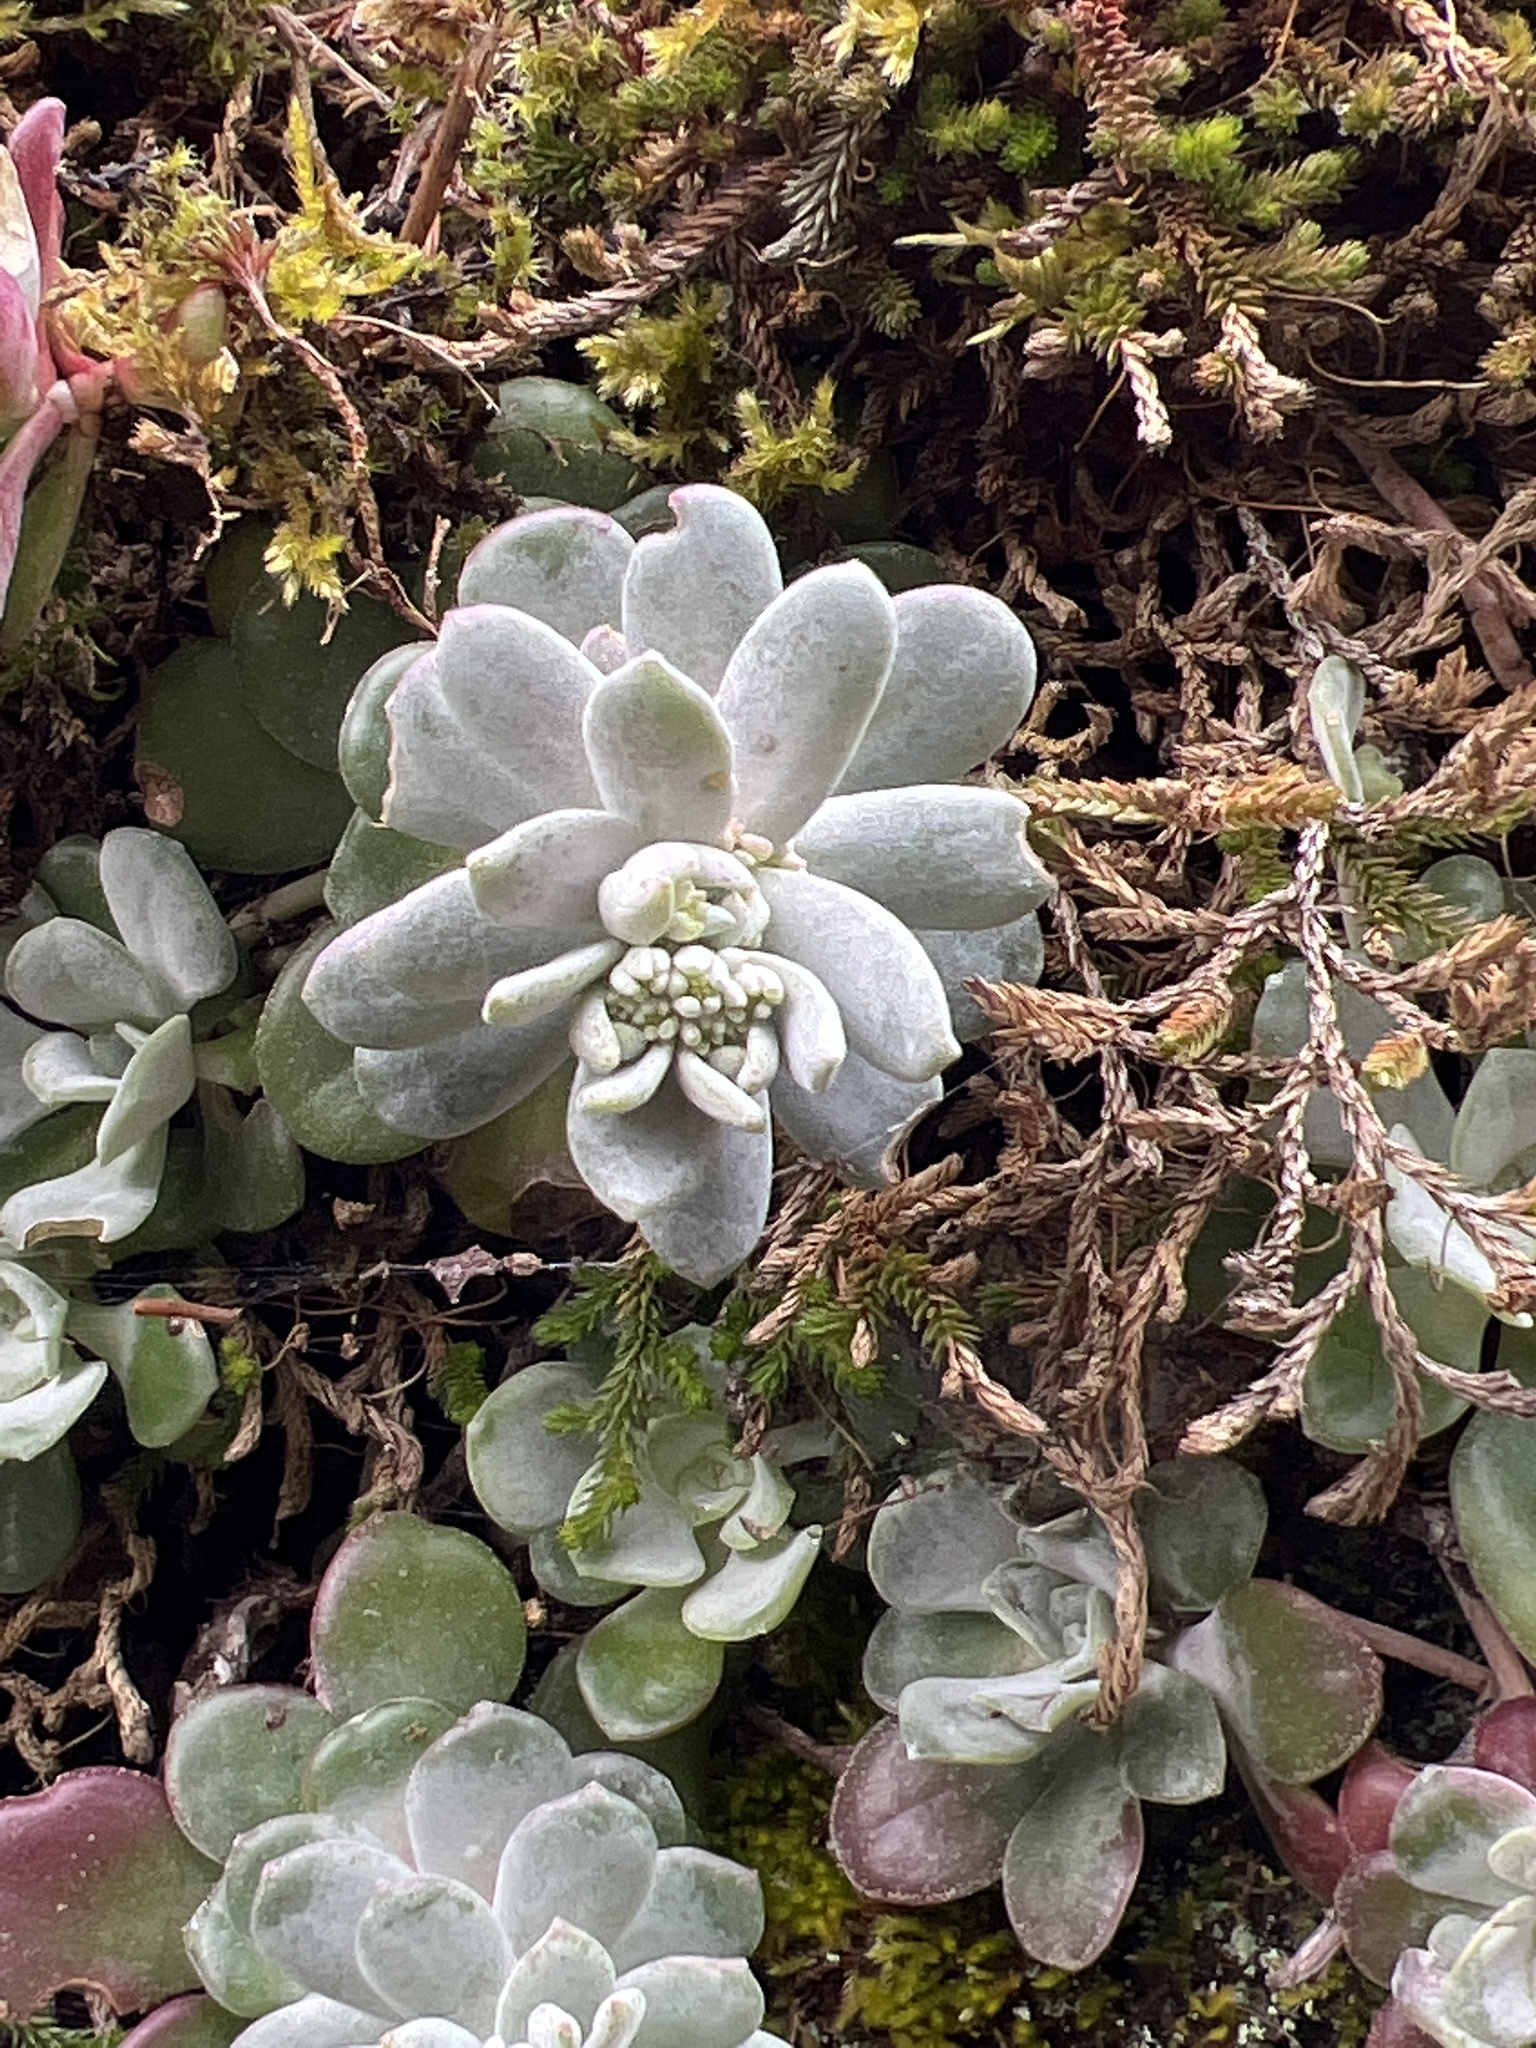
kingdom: Plantae
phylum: Tracheophyta
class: Magnoliopsida
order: Saxifragales
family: Crassulaceae
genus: Sedum
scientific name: Sedum spathulifolium
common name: Colorado stonecrop
